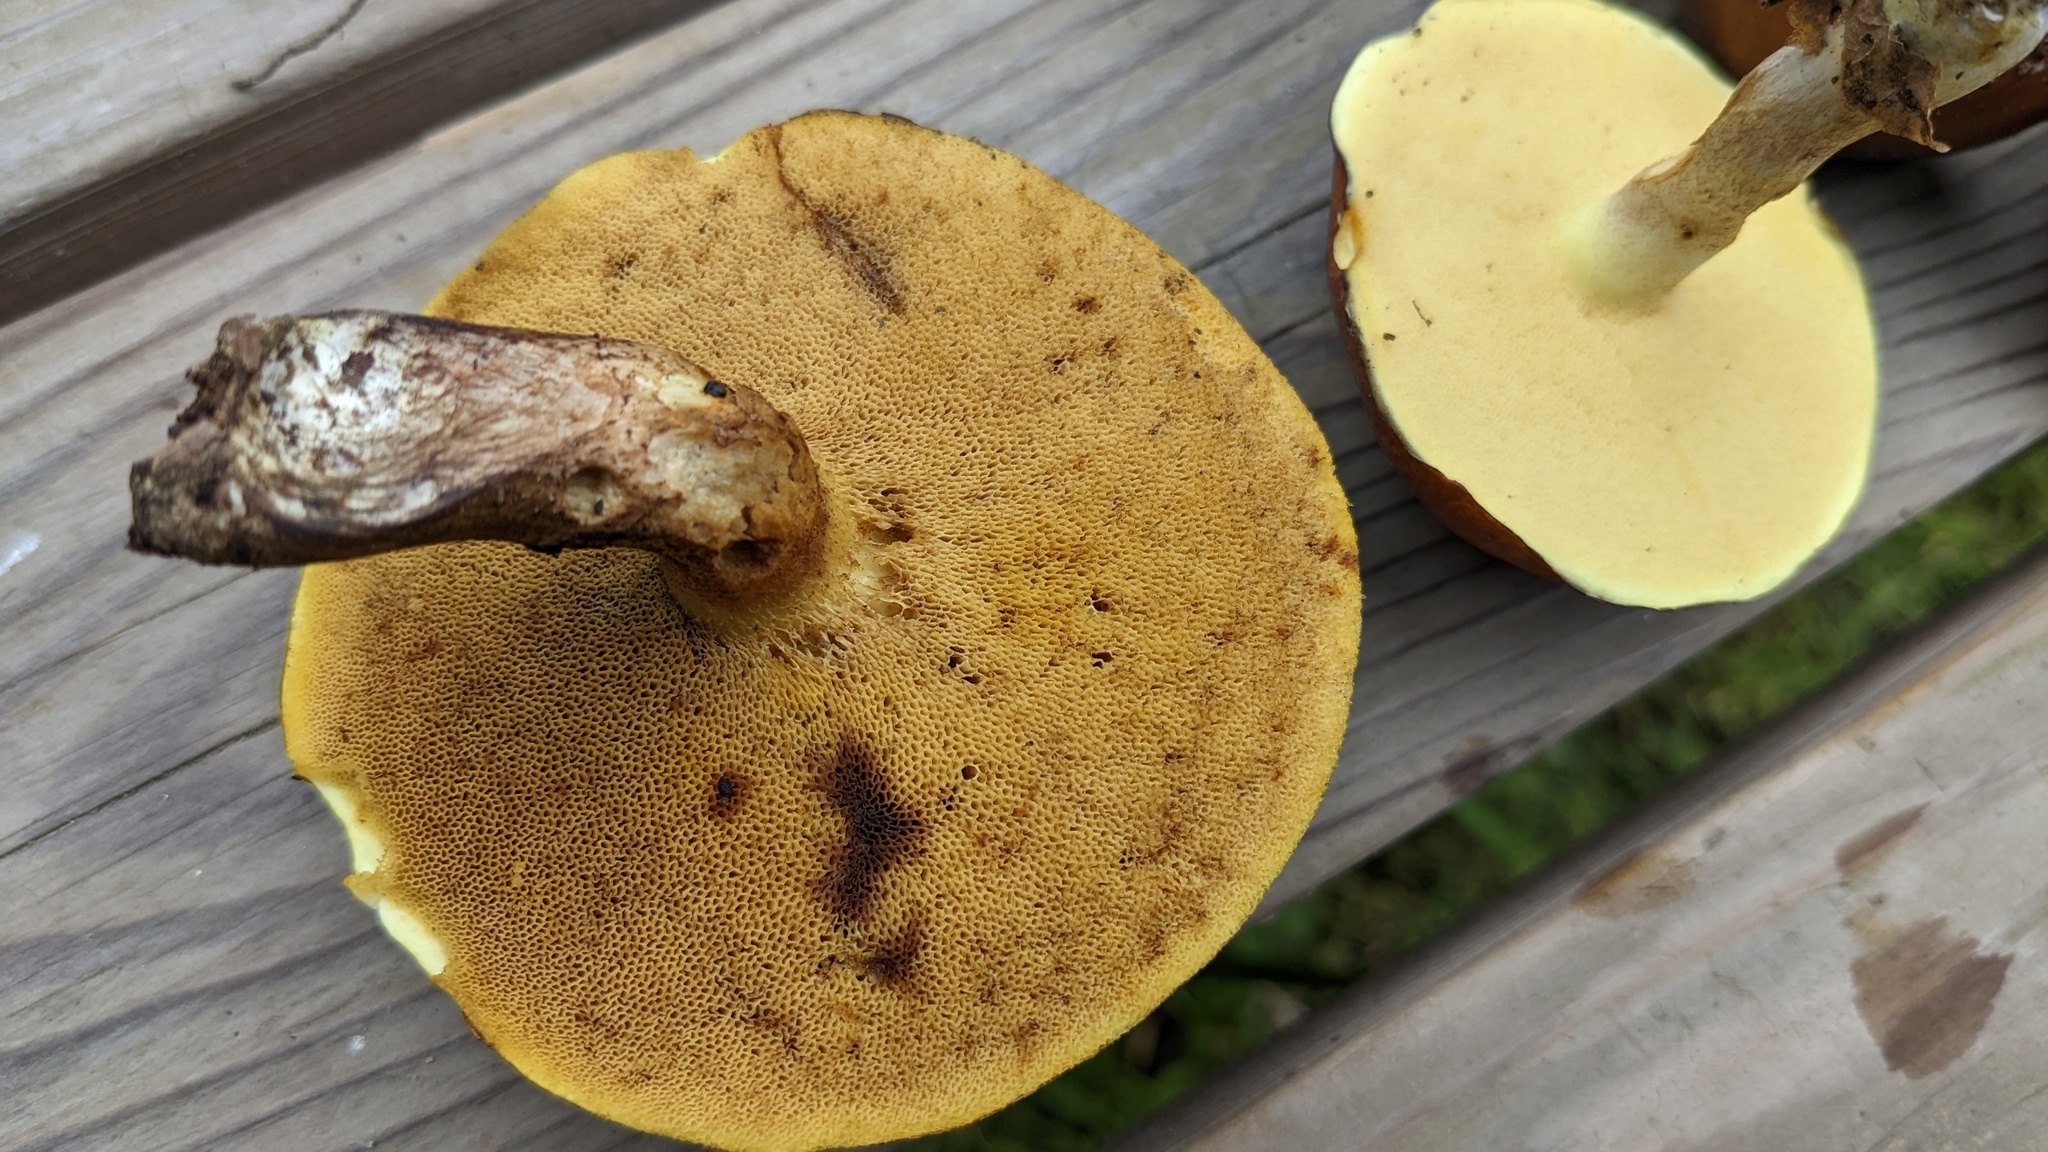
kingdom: Fungi
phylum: Basidiomycota
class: Agaricomycetes
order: Boletales
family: Suillaceae
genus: Suillus
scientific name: Suillus luteus
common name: Slippery jack
